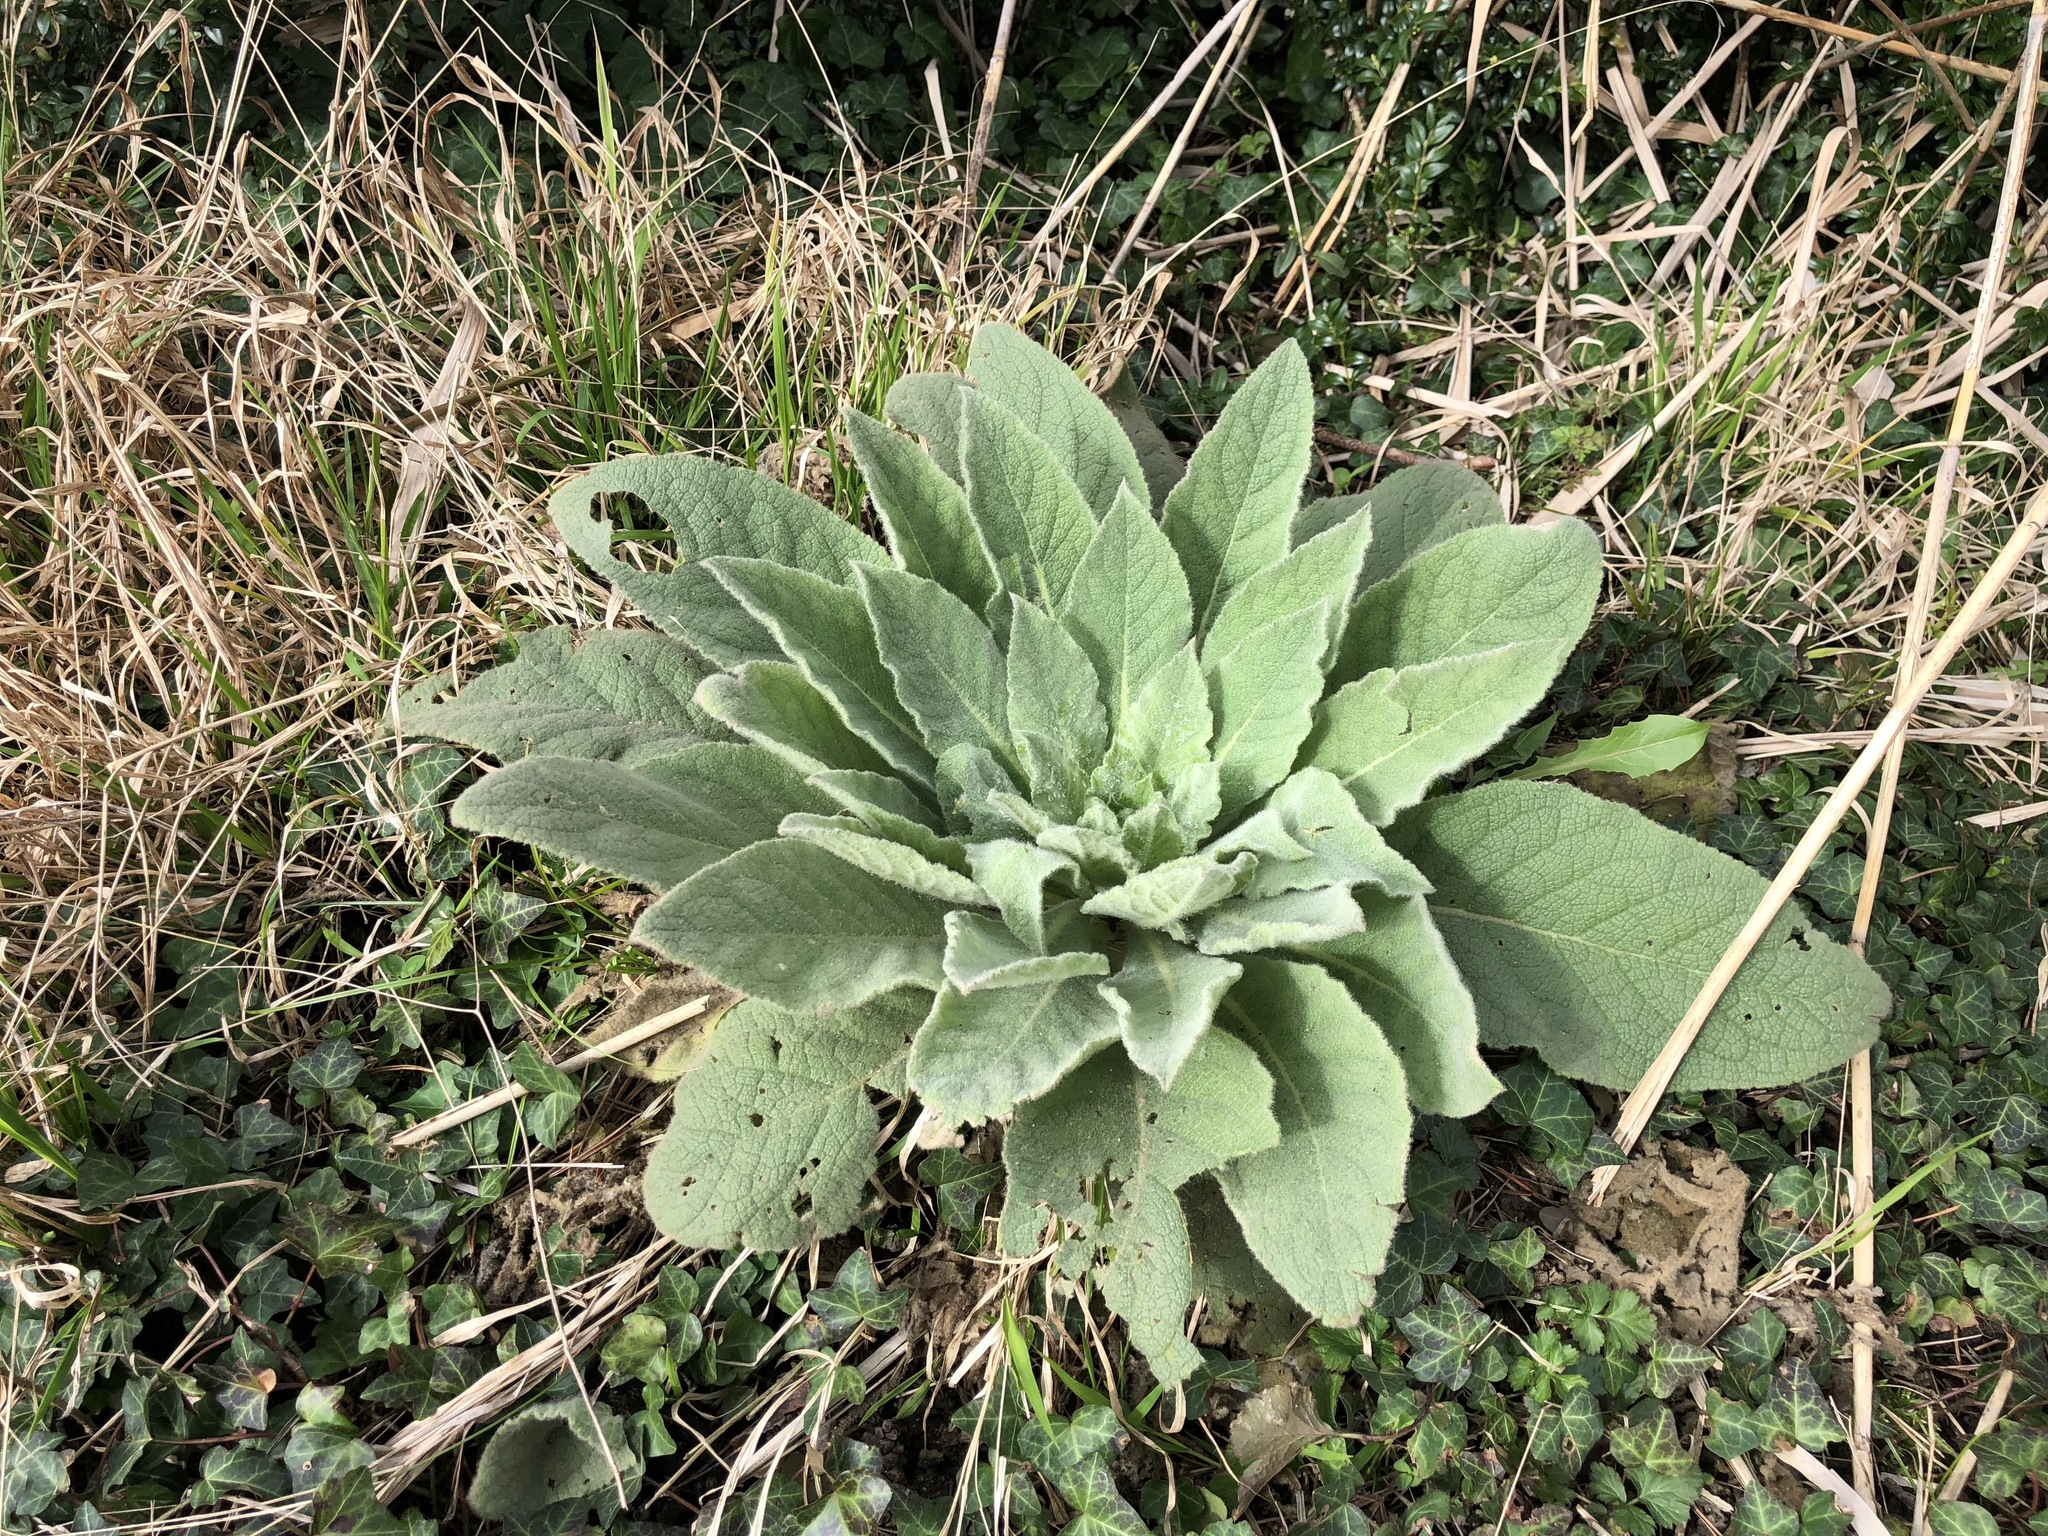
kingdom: Plantae
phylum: Tracheophyta
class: Magnoliopsida
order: Lamiales
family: Scrophulariaceae
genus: Verbascum
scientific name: Verbascum thapsus
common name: Common mullein
